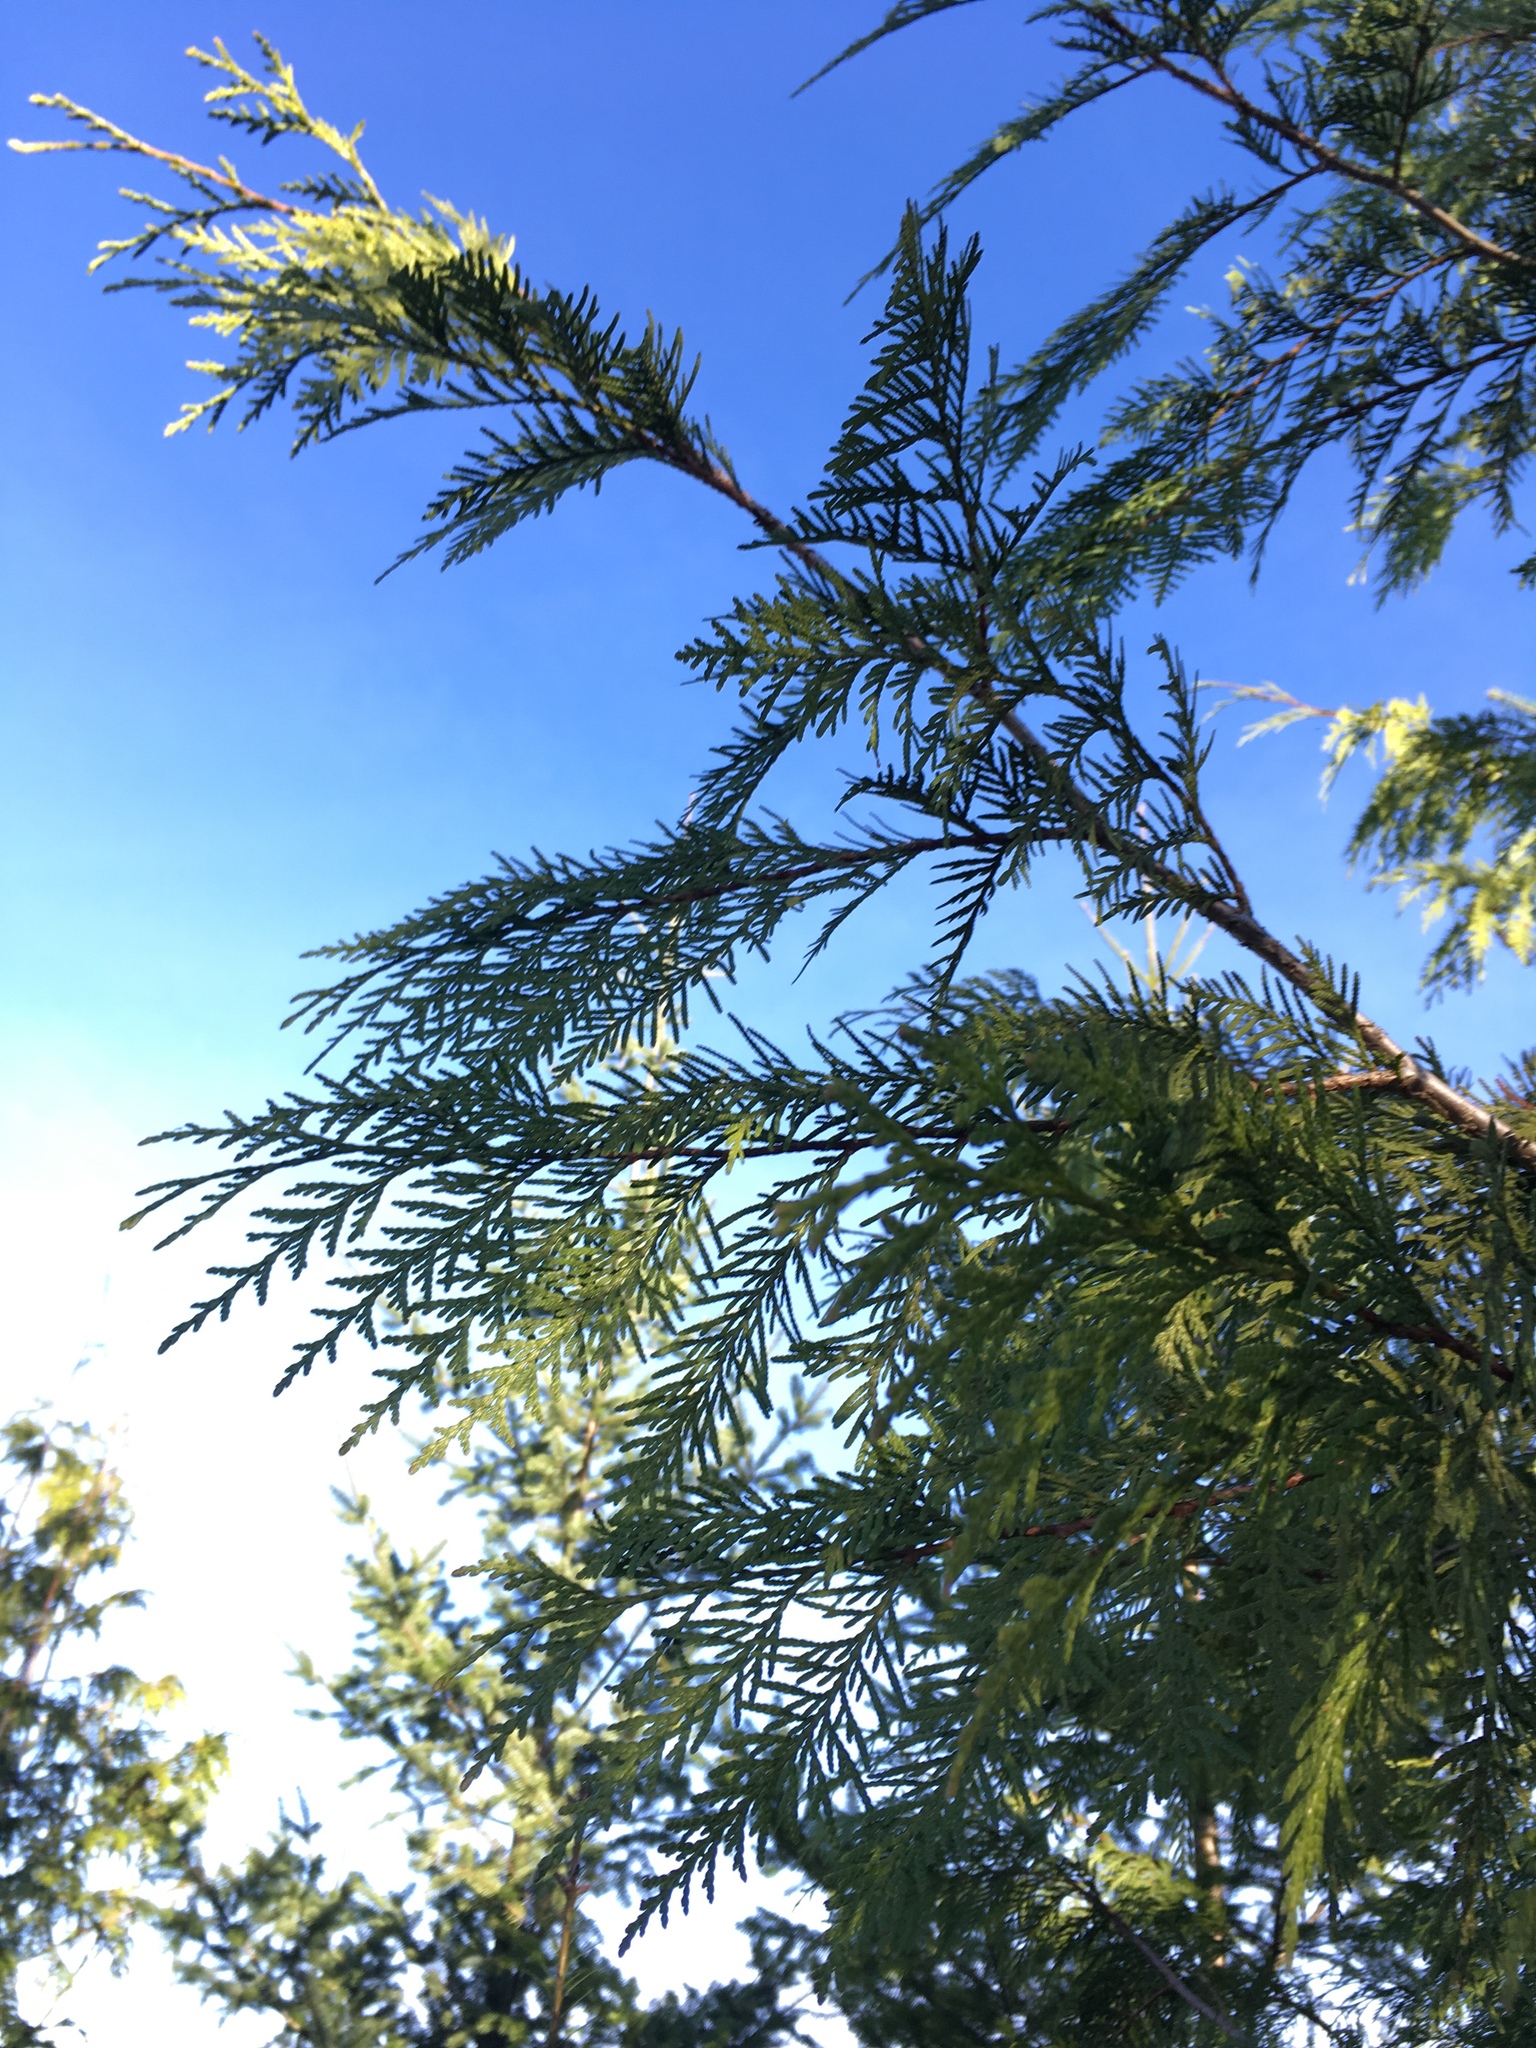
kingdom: Plantae
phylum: Tracheophyta
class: Pinopsida
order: Pinales
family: Cupressaceae
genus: Thuja
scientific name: Thuja plicata
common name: Western red-cedar
